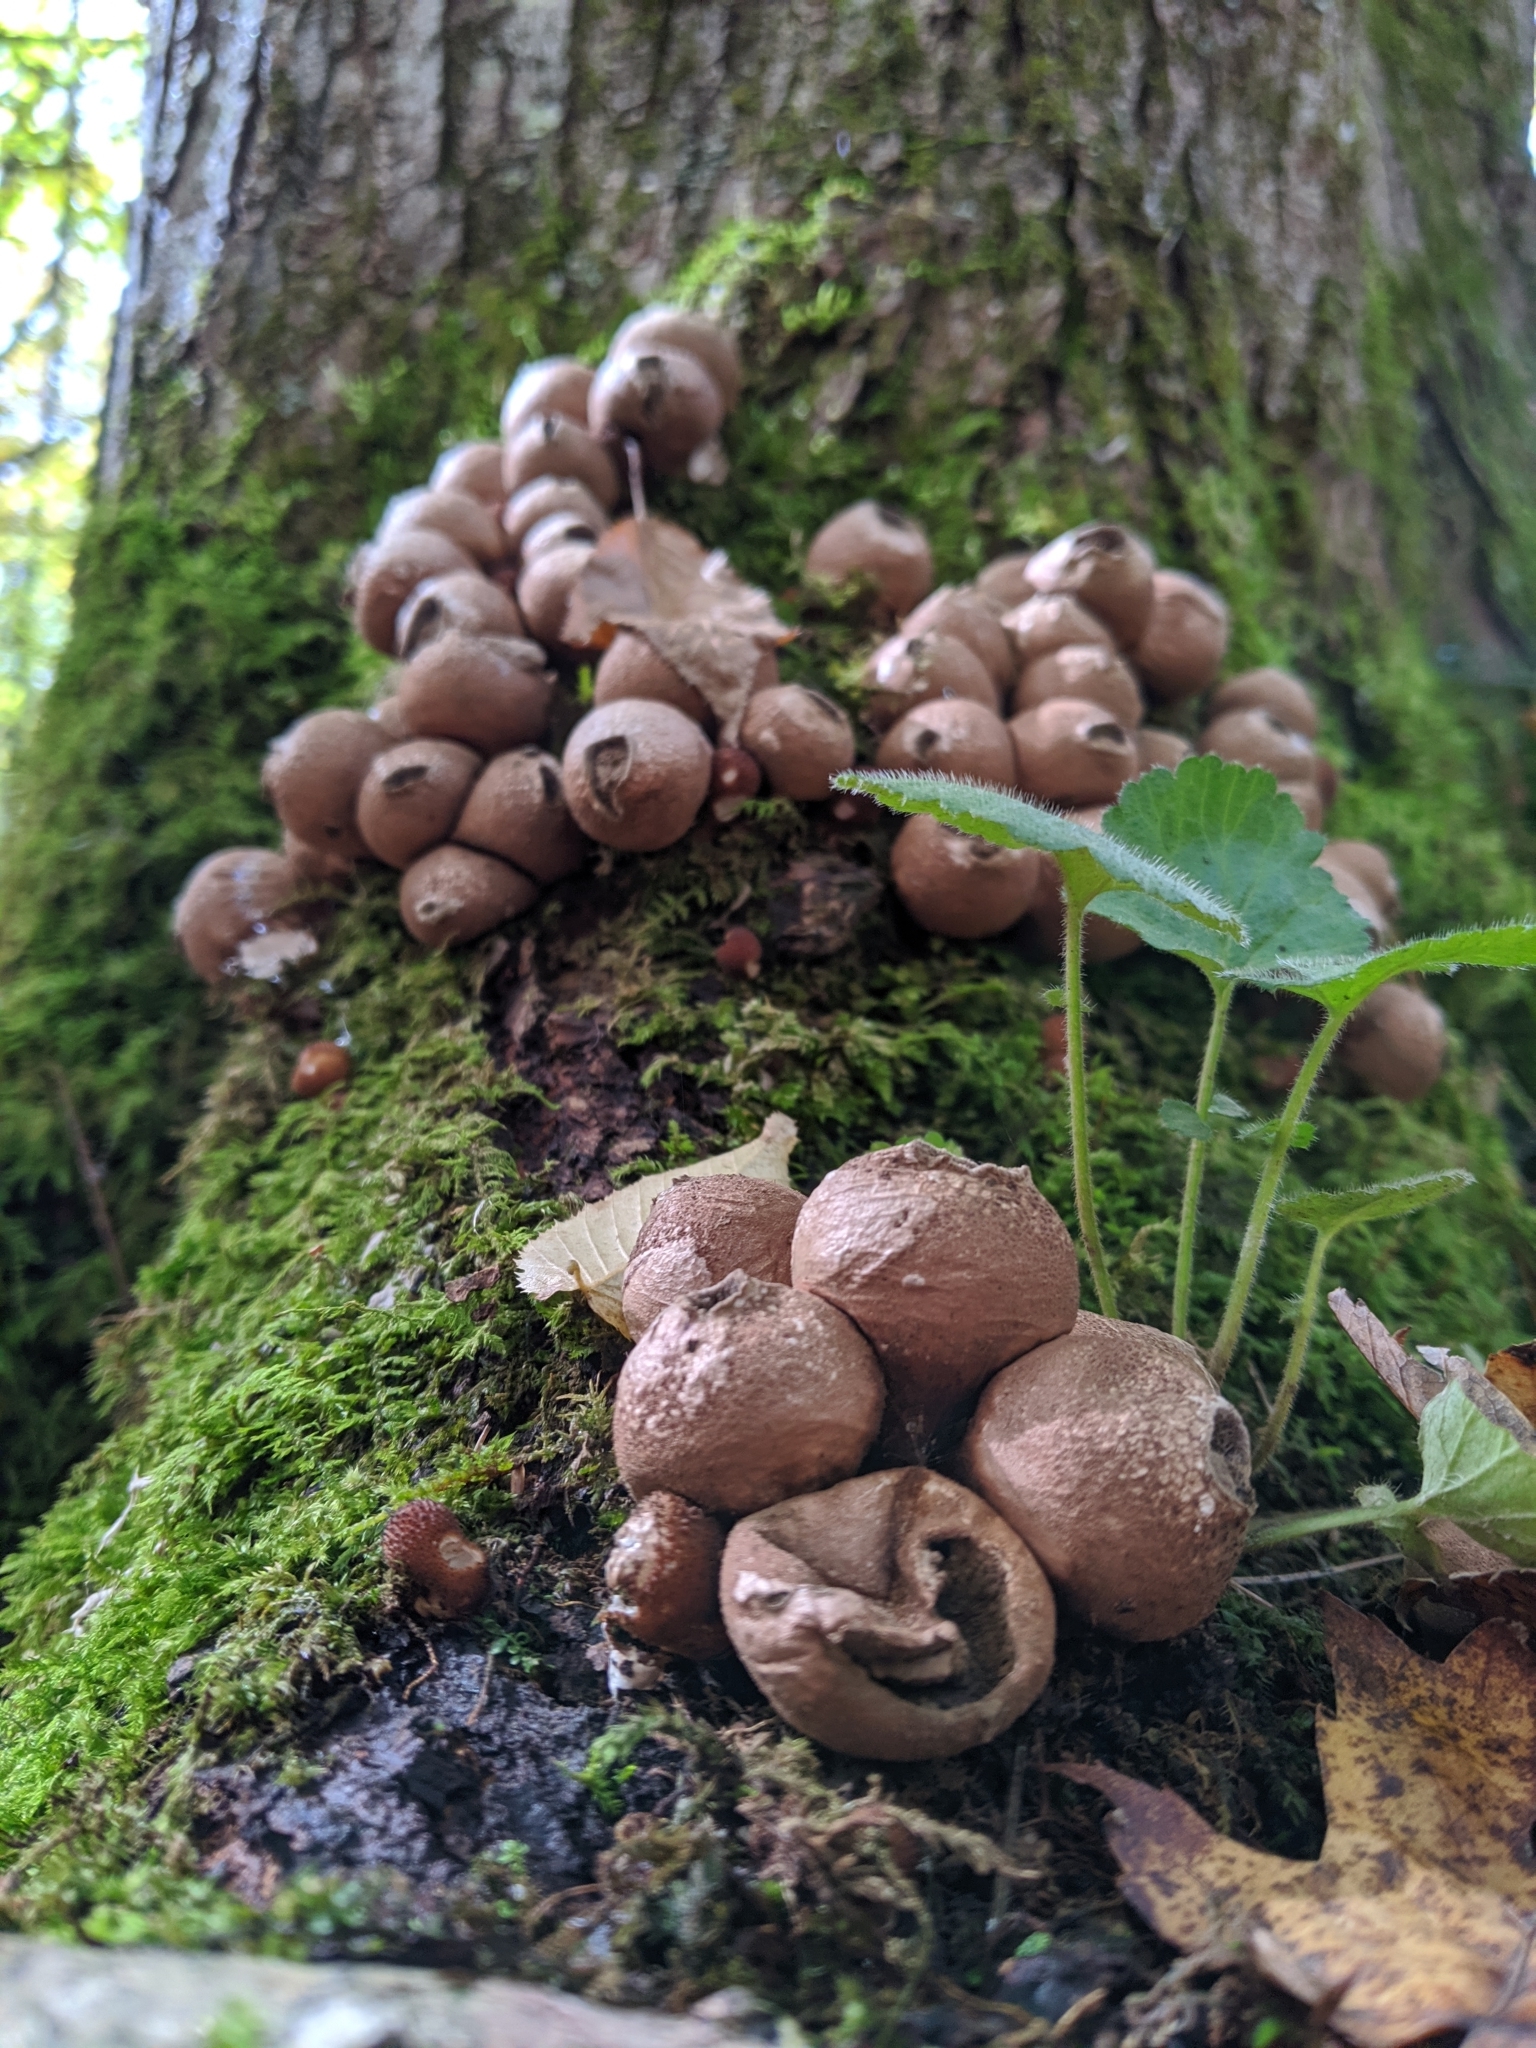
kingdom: Fungi
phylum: Basidiomycota
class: Agaricomycetes
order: Agaricales
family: Lycoperdaceae
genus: Apioperdon
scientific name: Apioperdon pyriforme
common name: Pear-shaped puffball
